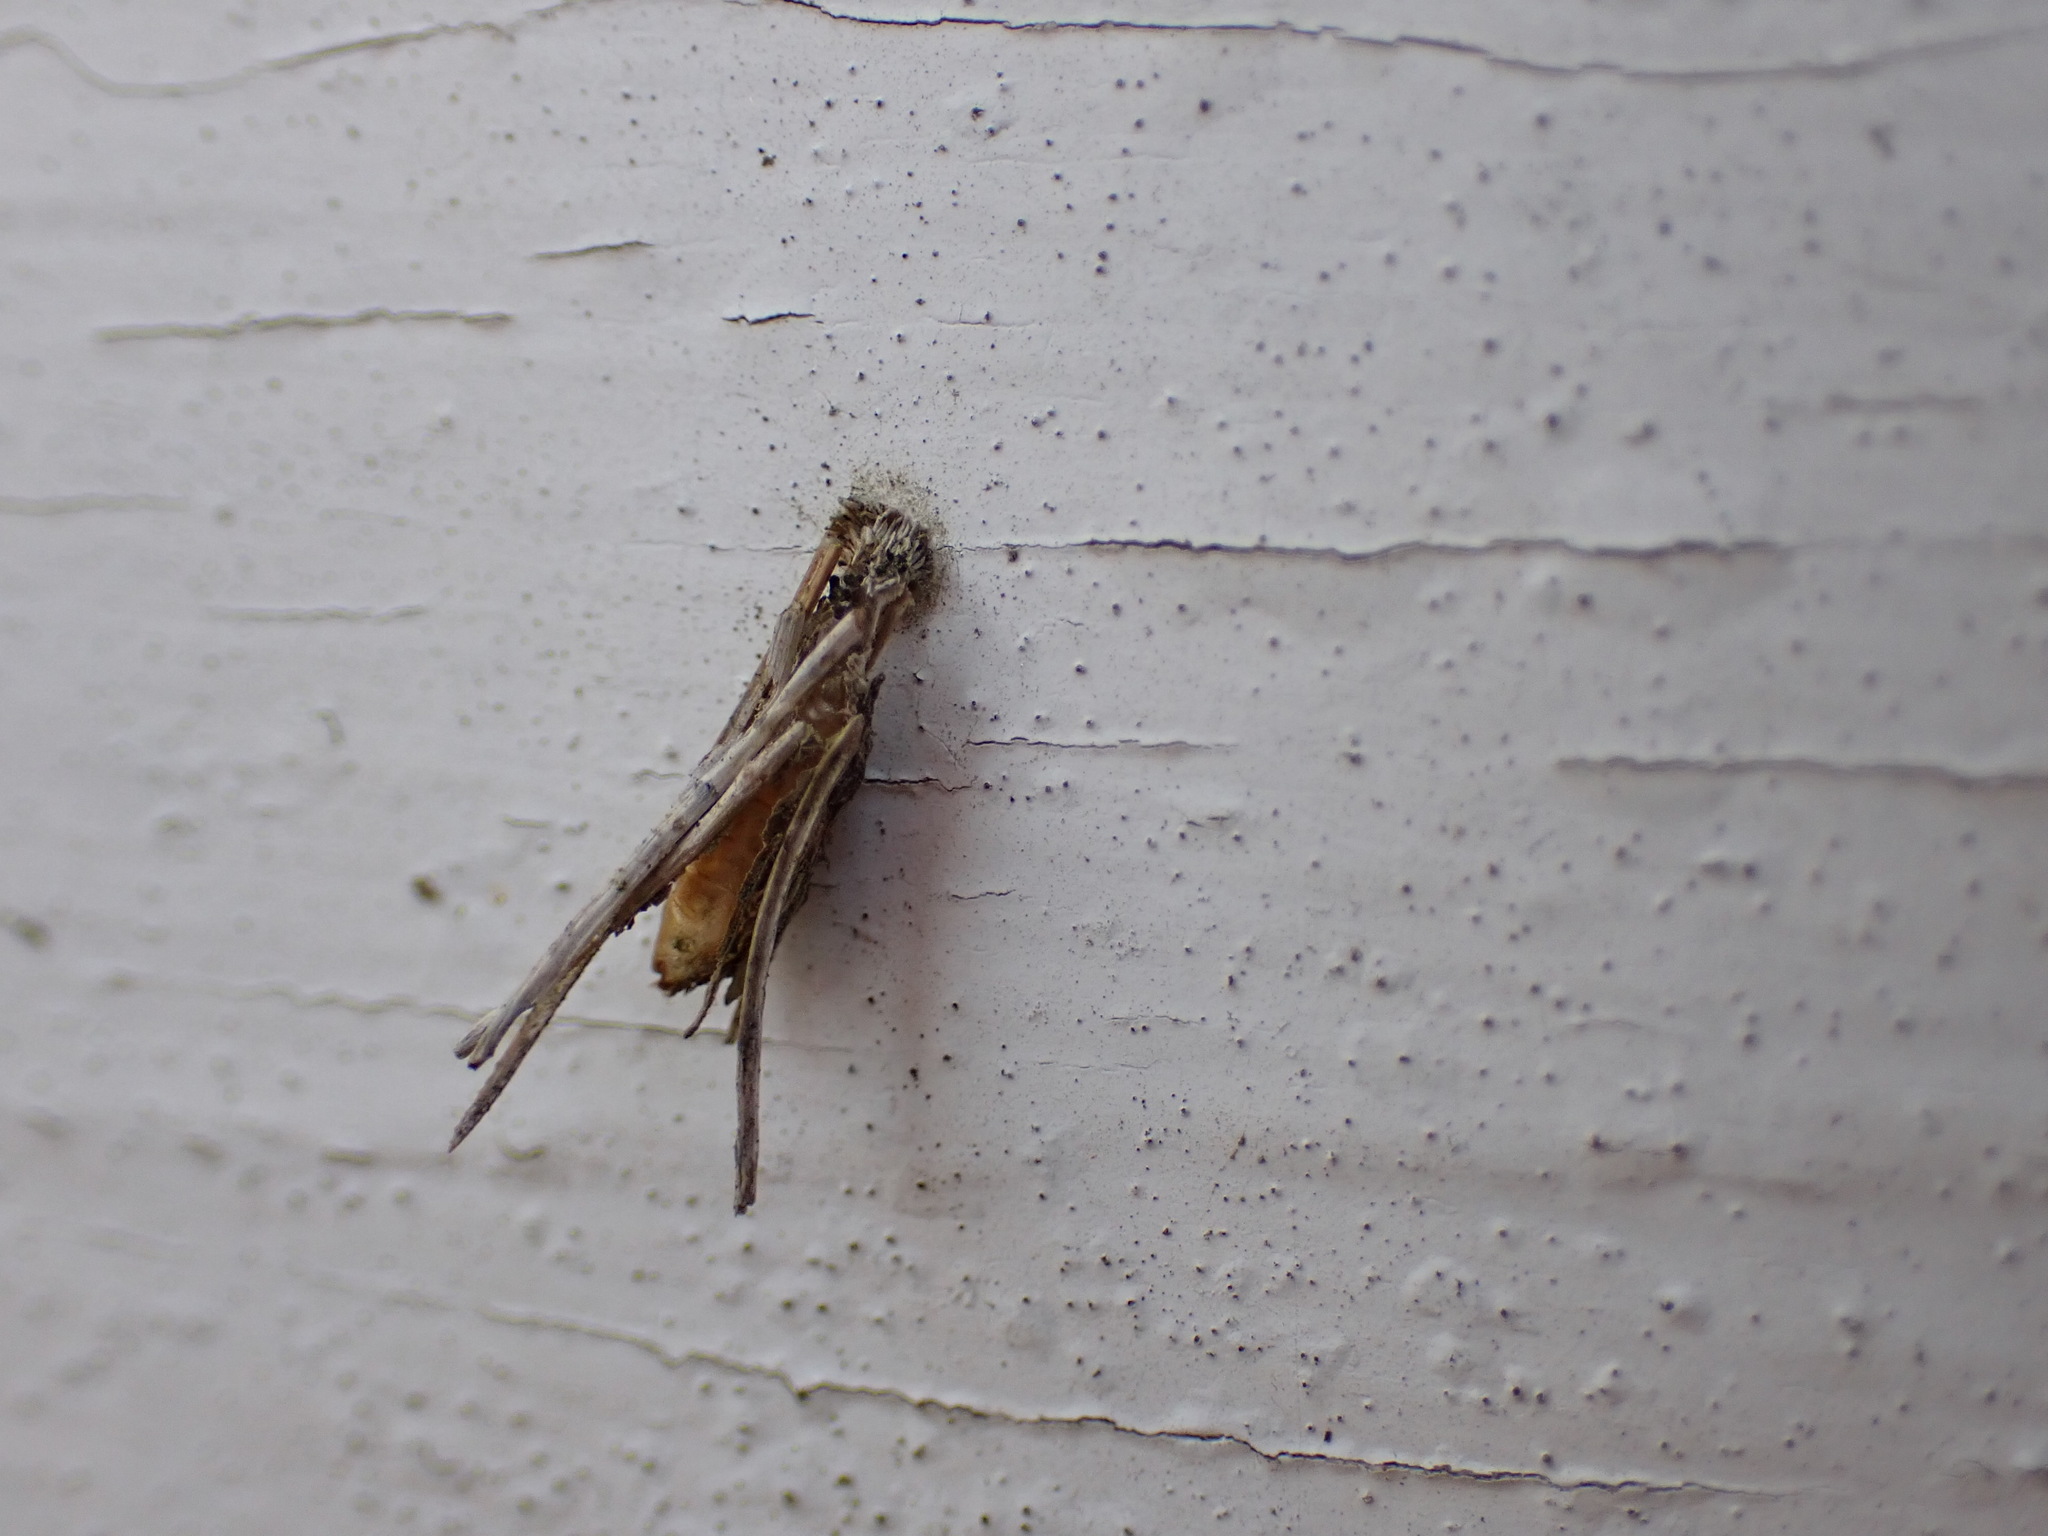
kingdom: Animalia
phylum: Arthropoda
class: Insecta
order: Lepidoptera
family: Psychidae
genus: Psyche
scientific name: Psyche casta
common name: Common sweep
